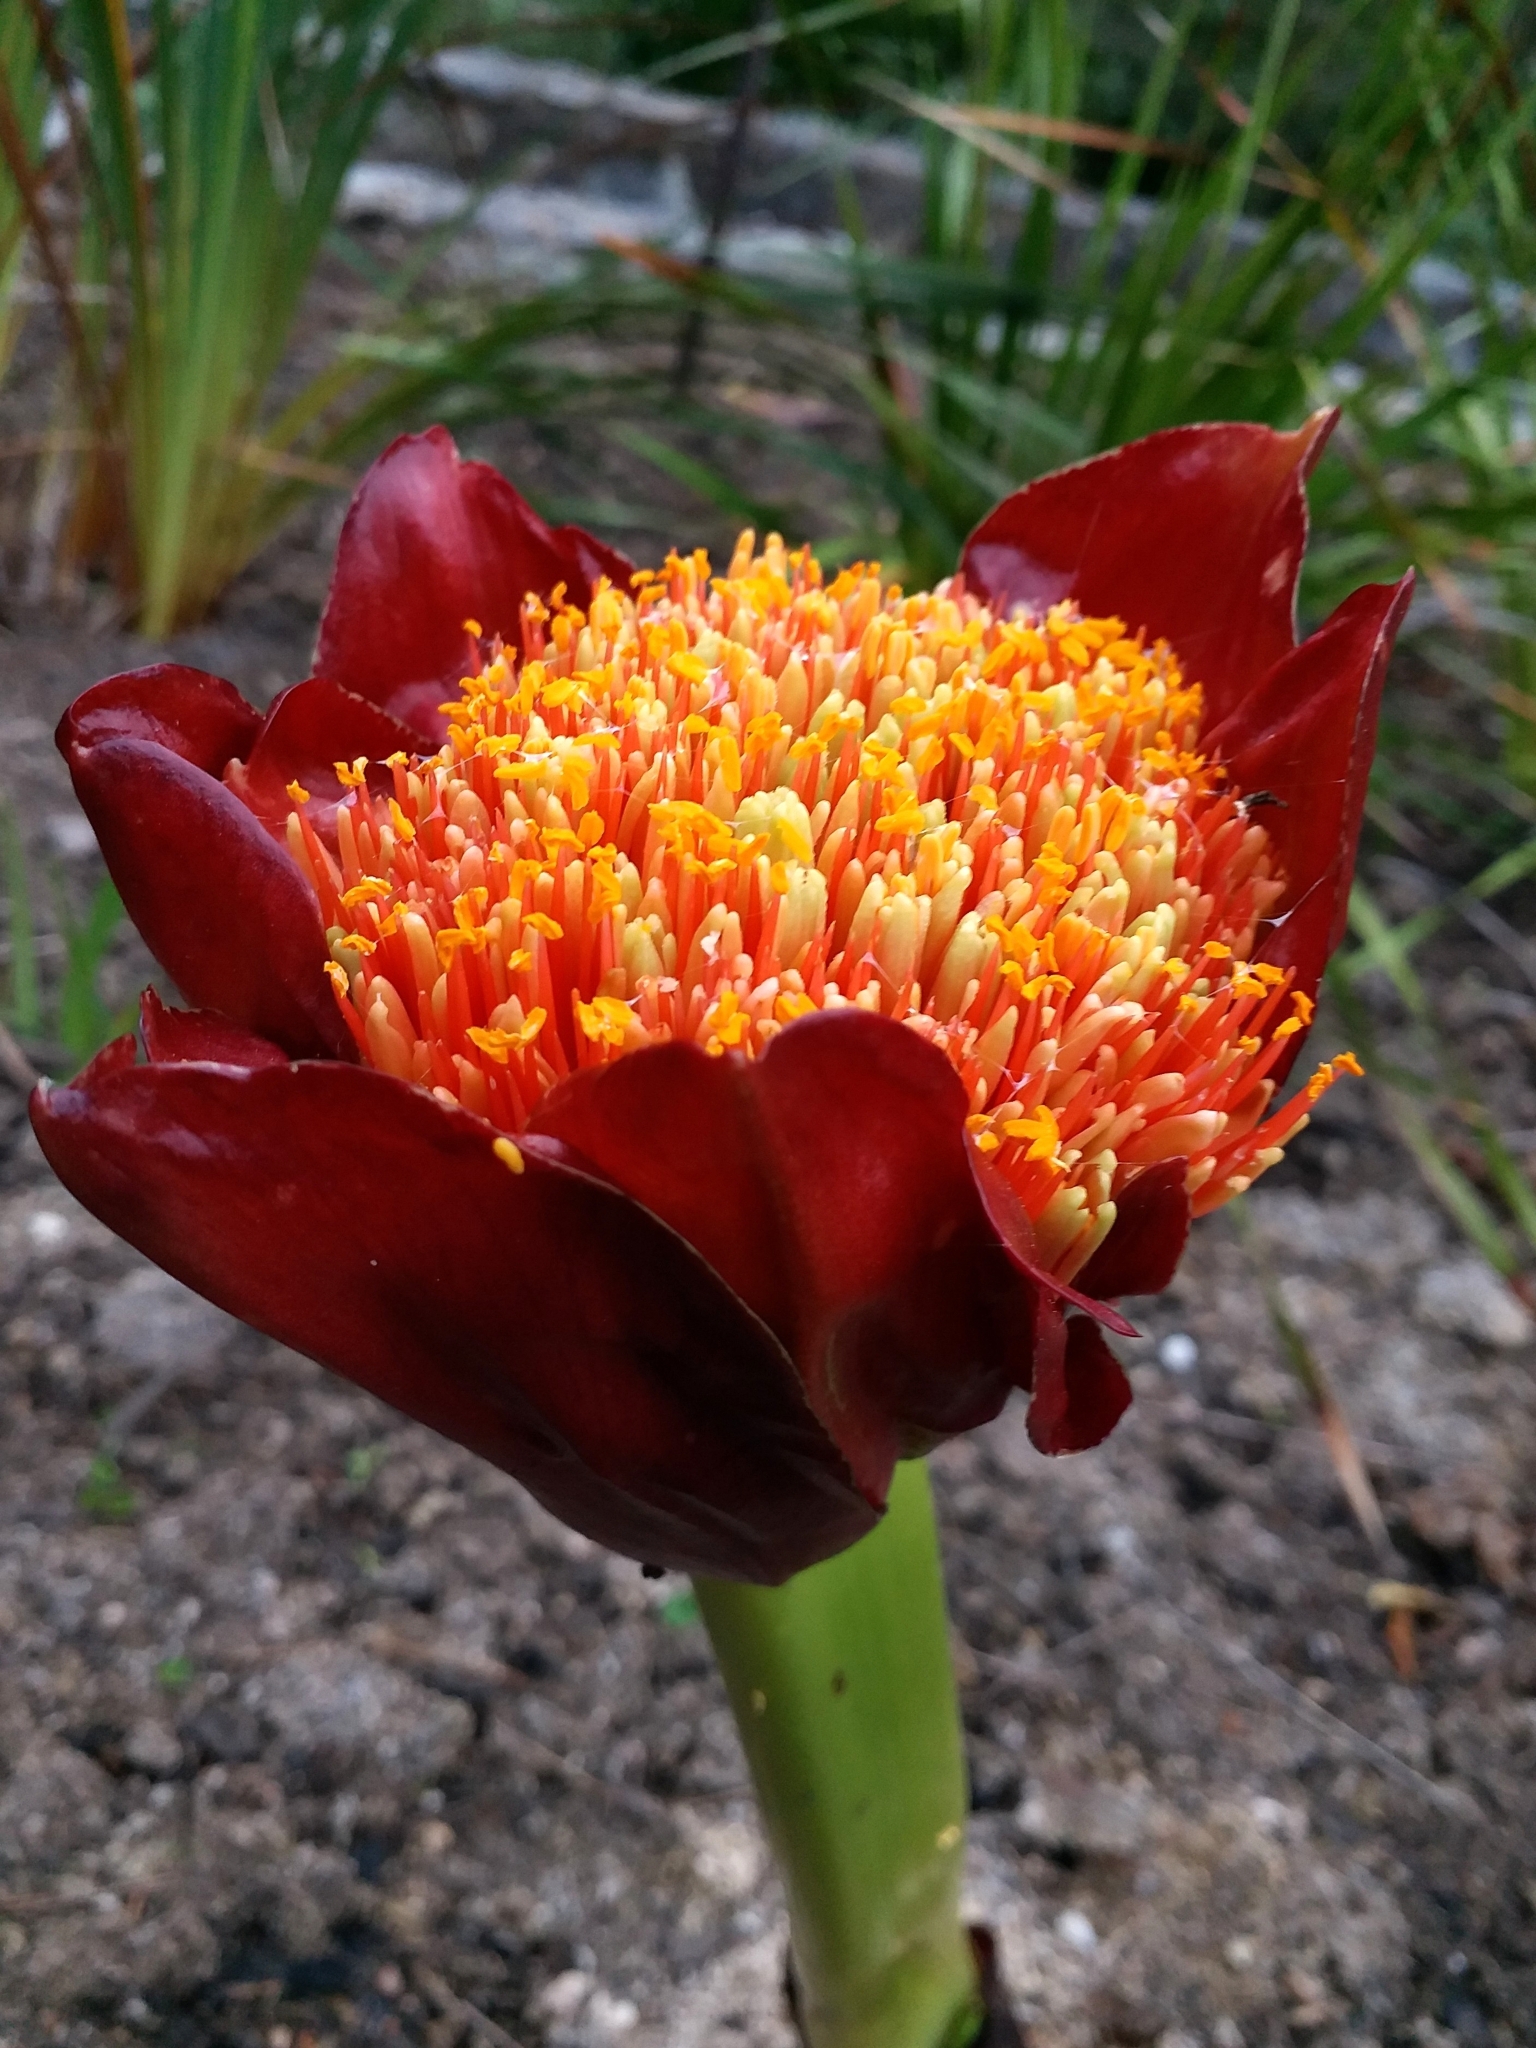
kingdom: Plantae
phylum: Tracheophyta
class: Liliopsida
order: Asparagales
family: Amaryllidaceae
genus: Scadoxus
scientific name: Scadoxus puniceus
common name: Royal-paintbrush
